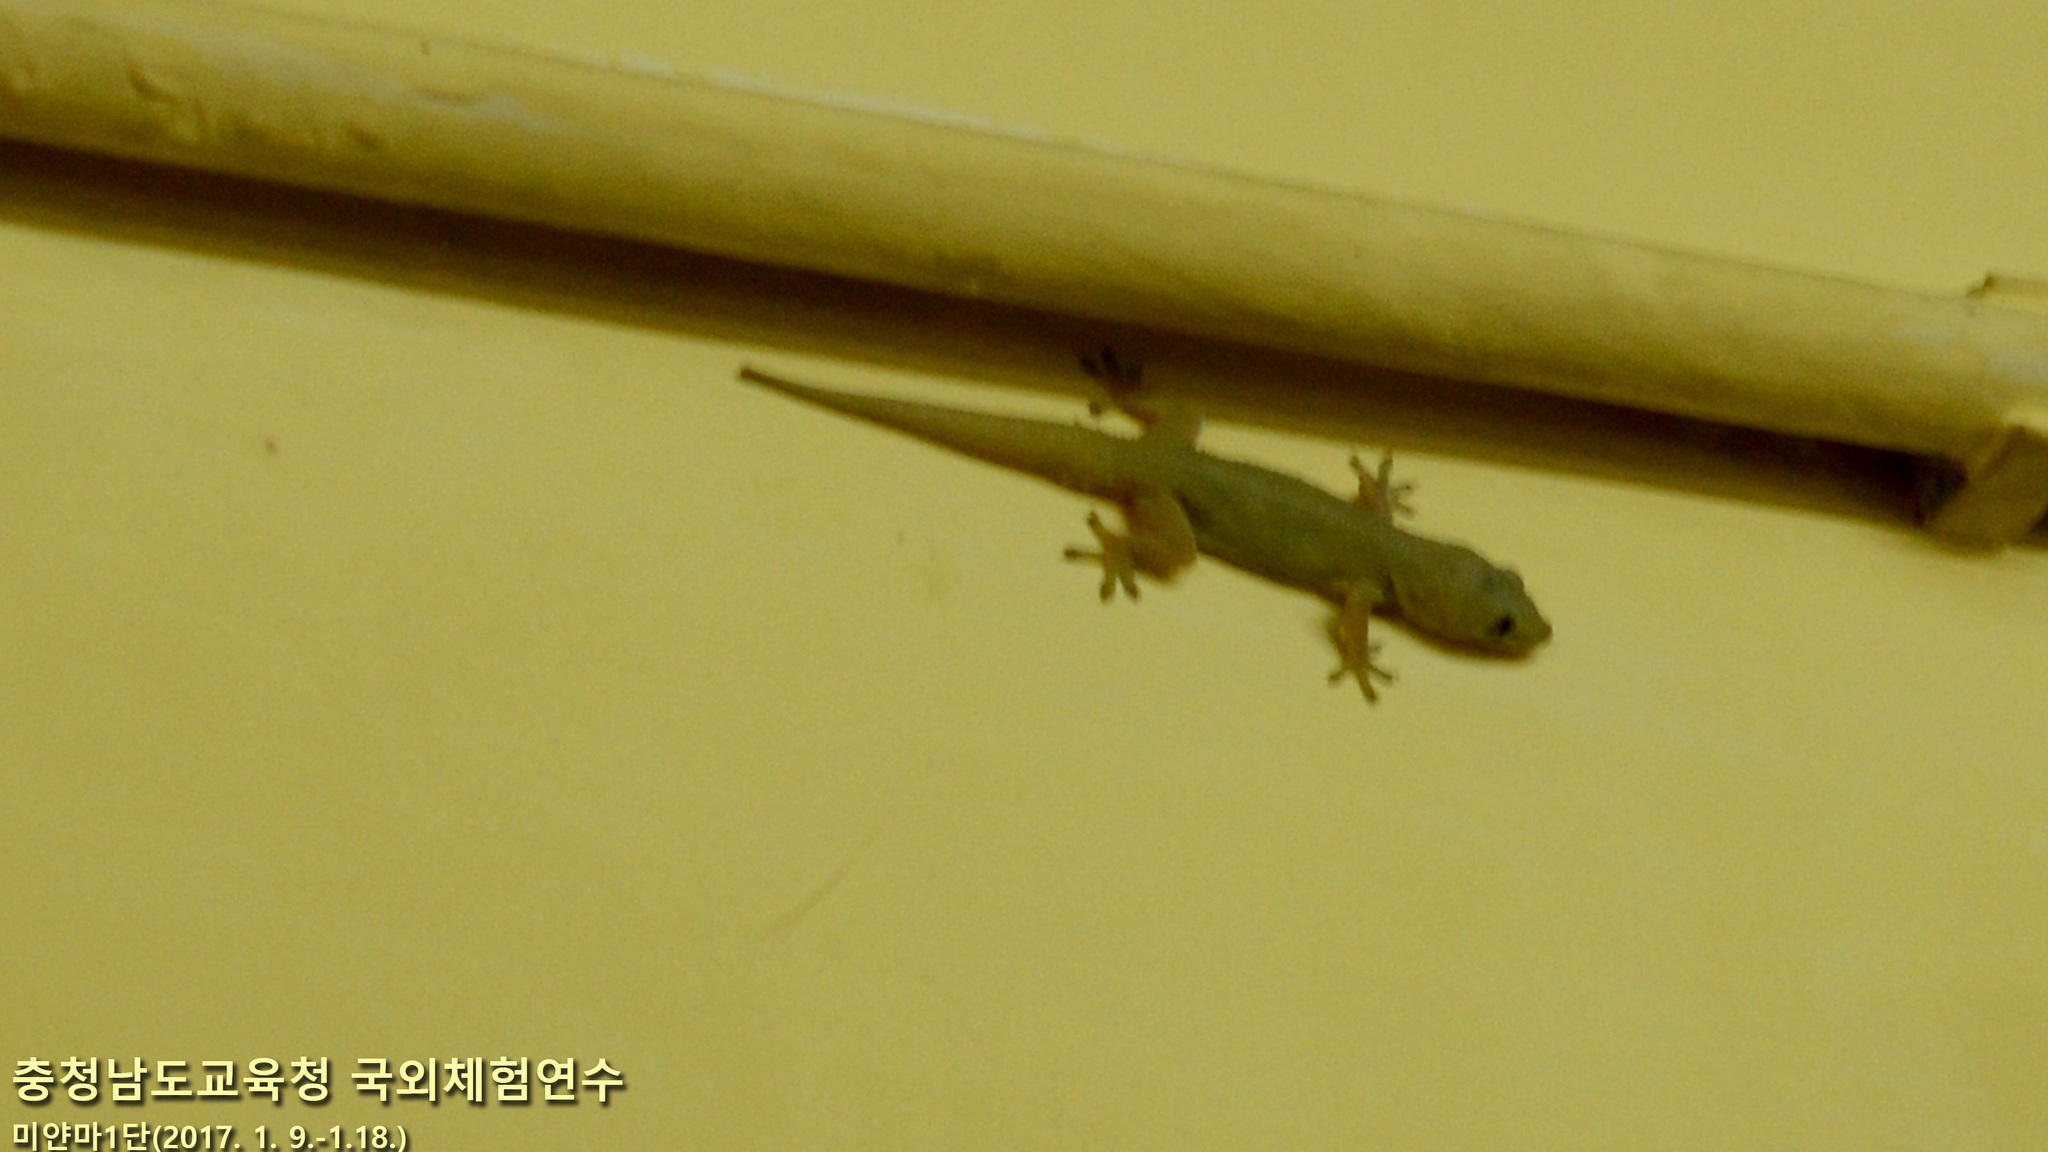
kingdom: Animalia
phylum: Chordata
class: Squamata
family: Gekkonidae
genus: Hemidactylus
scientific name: Hemidactylus frenatus
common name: Common house gecko
